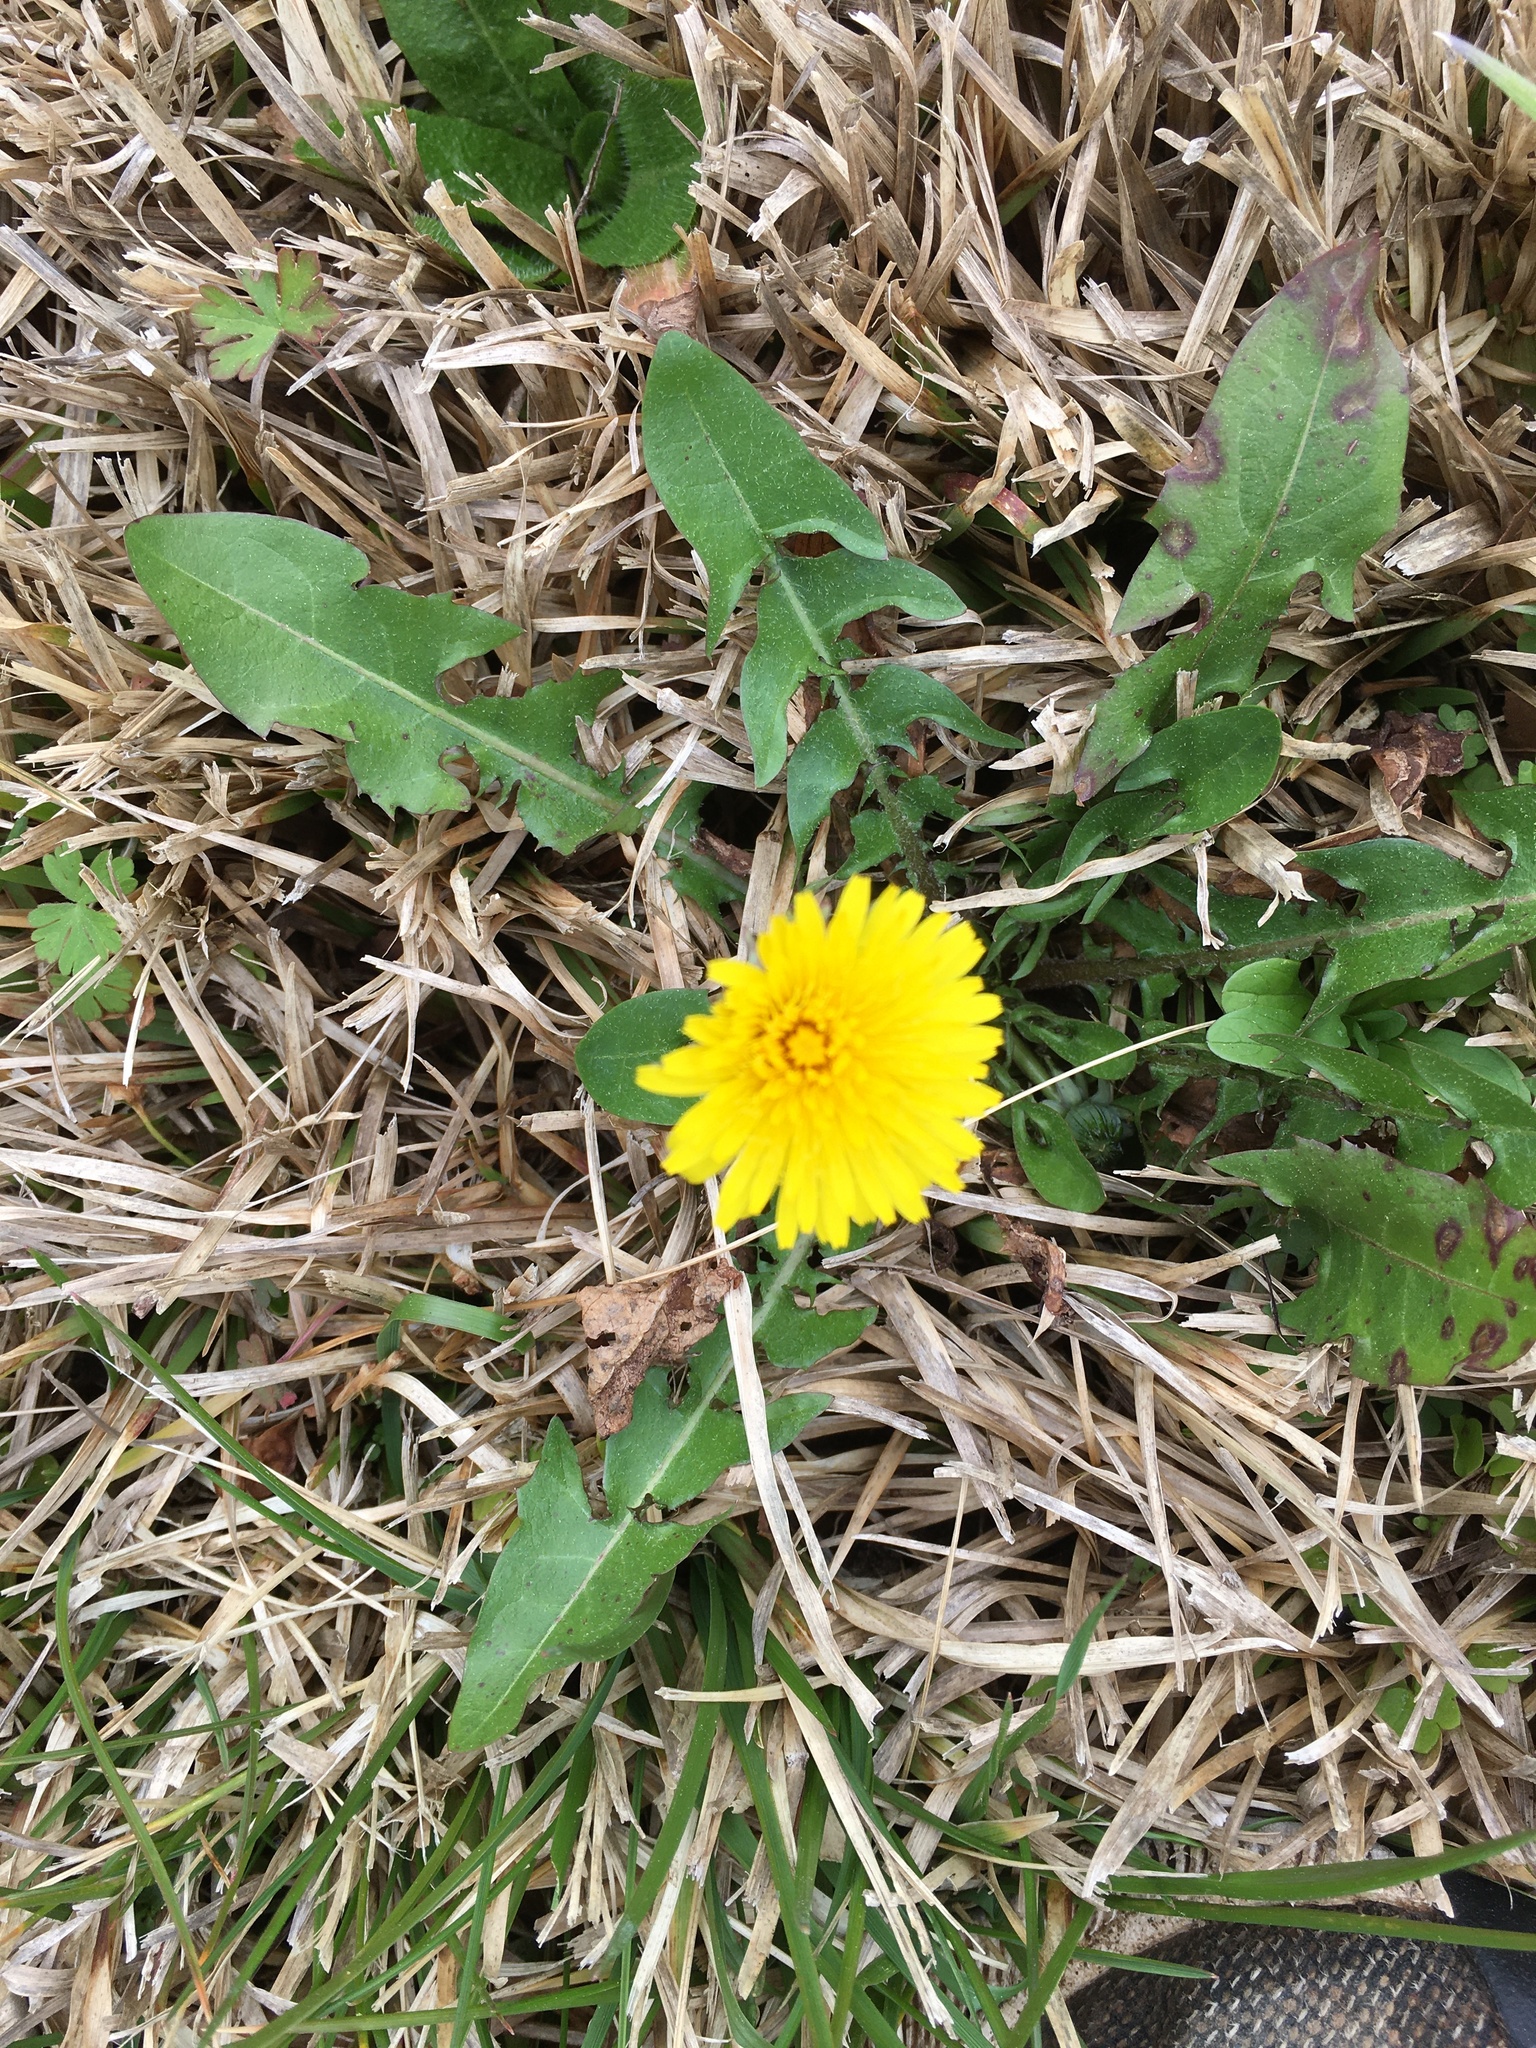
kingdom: Plantae
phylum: Tracheophyta
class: Magnoliopsida
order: Asterales
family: Asteraceae
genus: Taraxacum
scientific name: Taraxacum officinale
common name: Common dandelion
